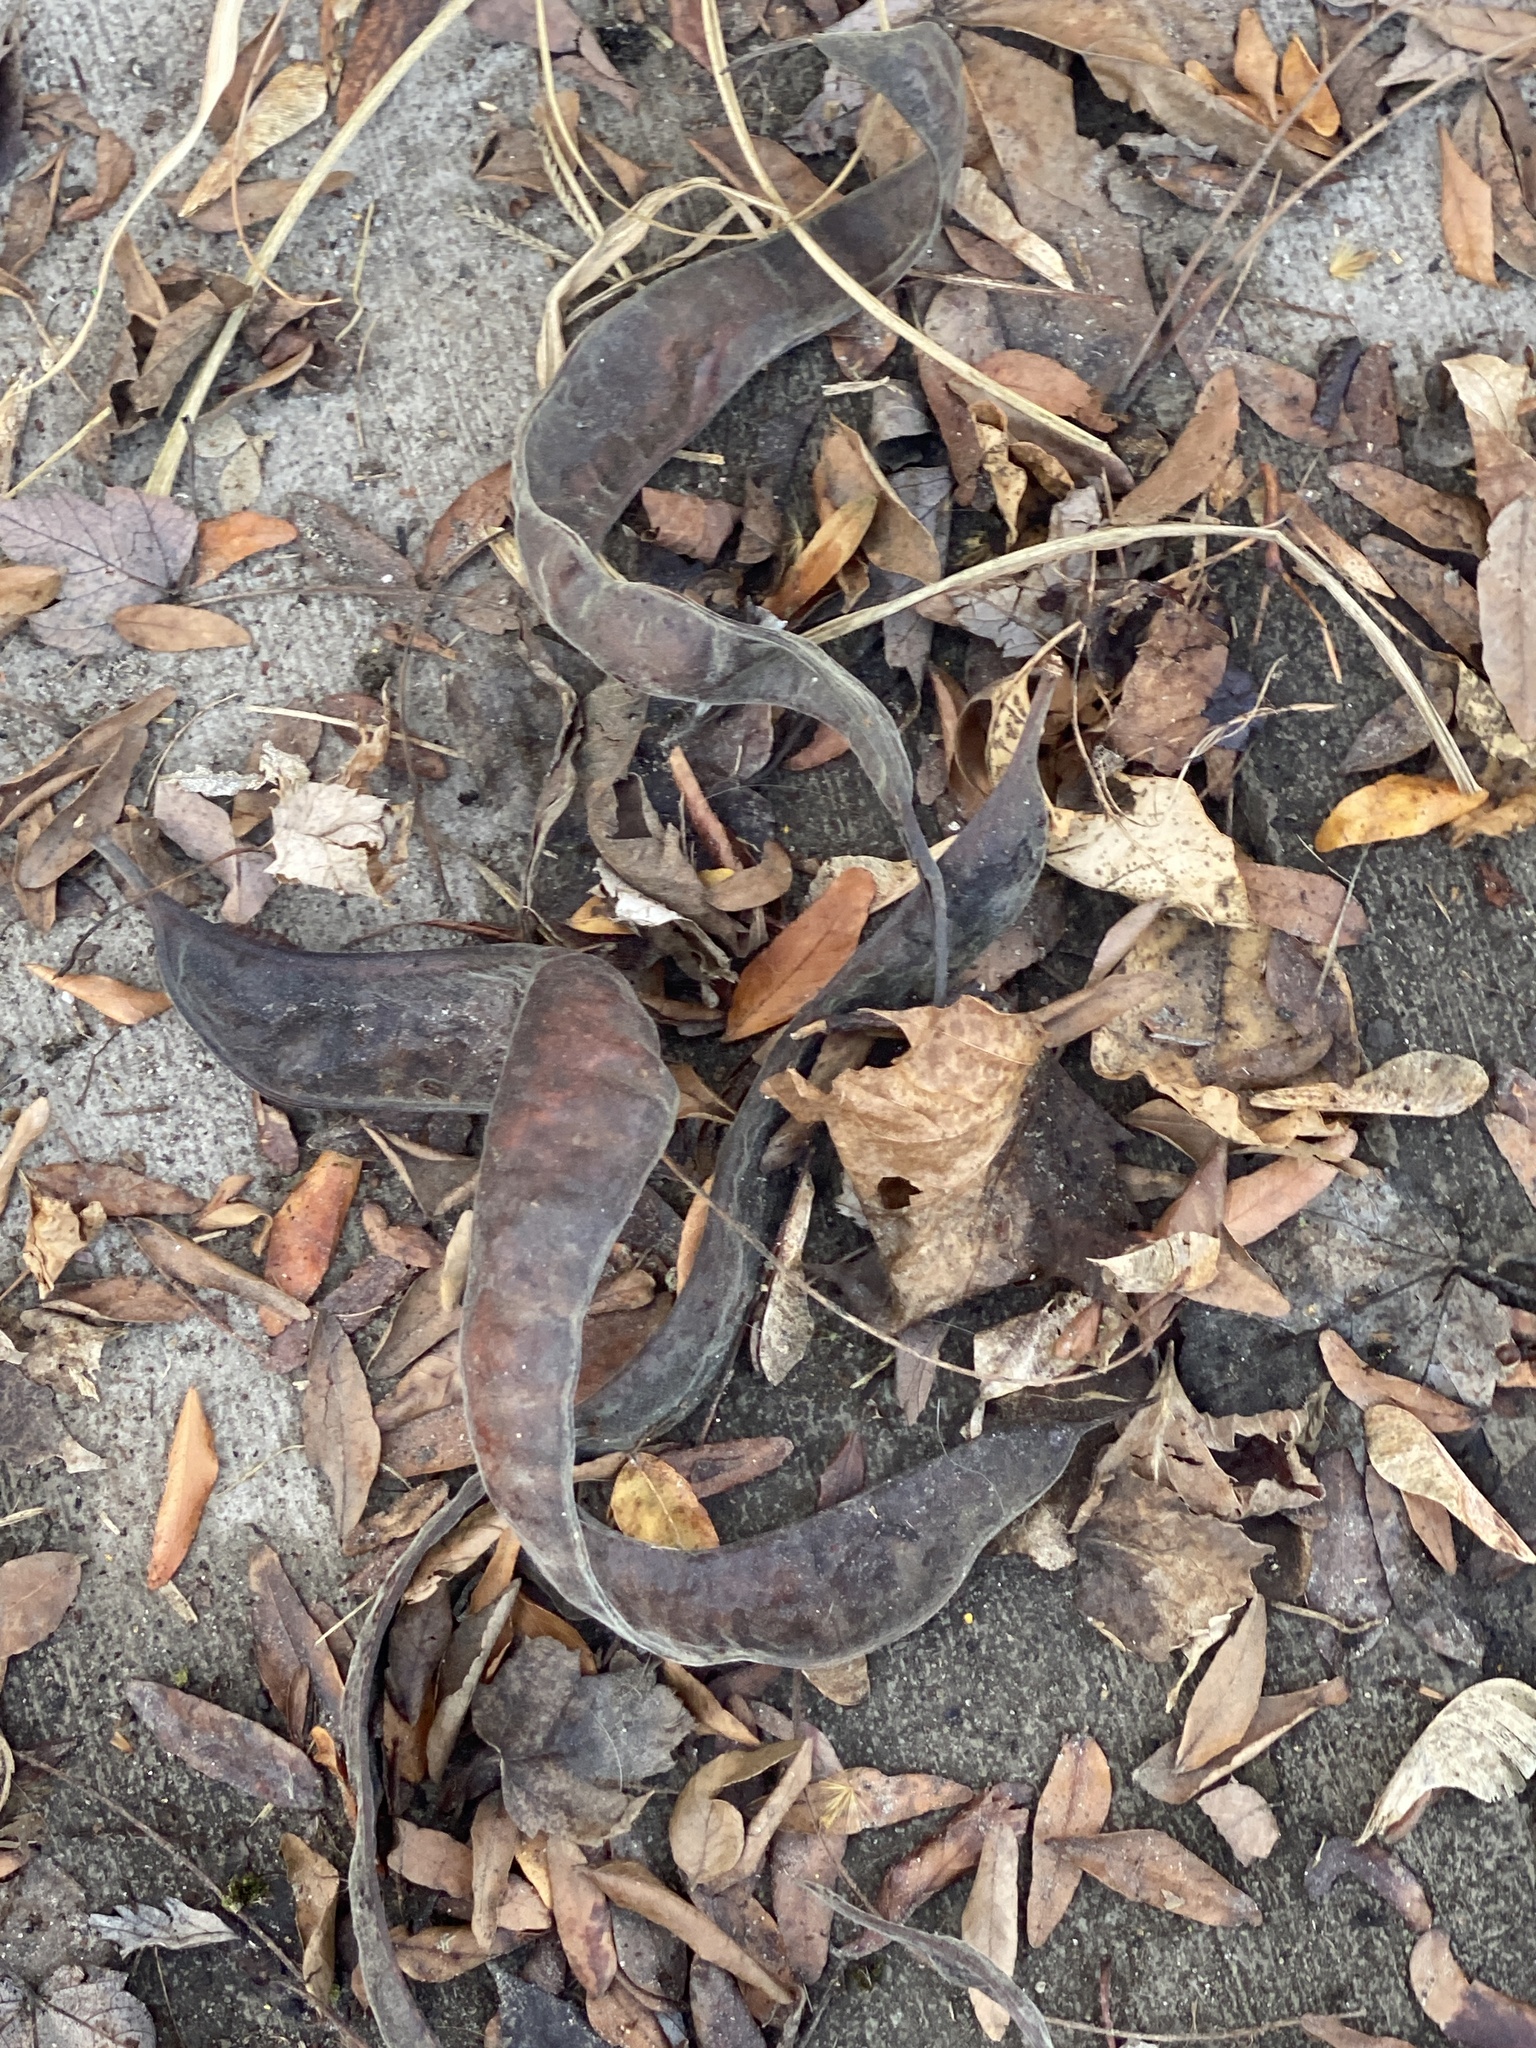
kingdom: Plantae
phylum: Tracheophyta
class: Magnoliopsida
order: Fabales
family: Fabaceae
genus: Gleditsia
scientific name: Gleditsia triacanthos
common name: Common honeylocust
